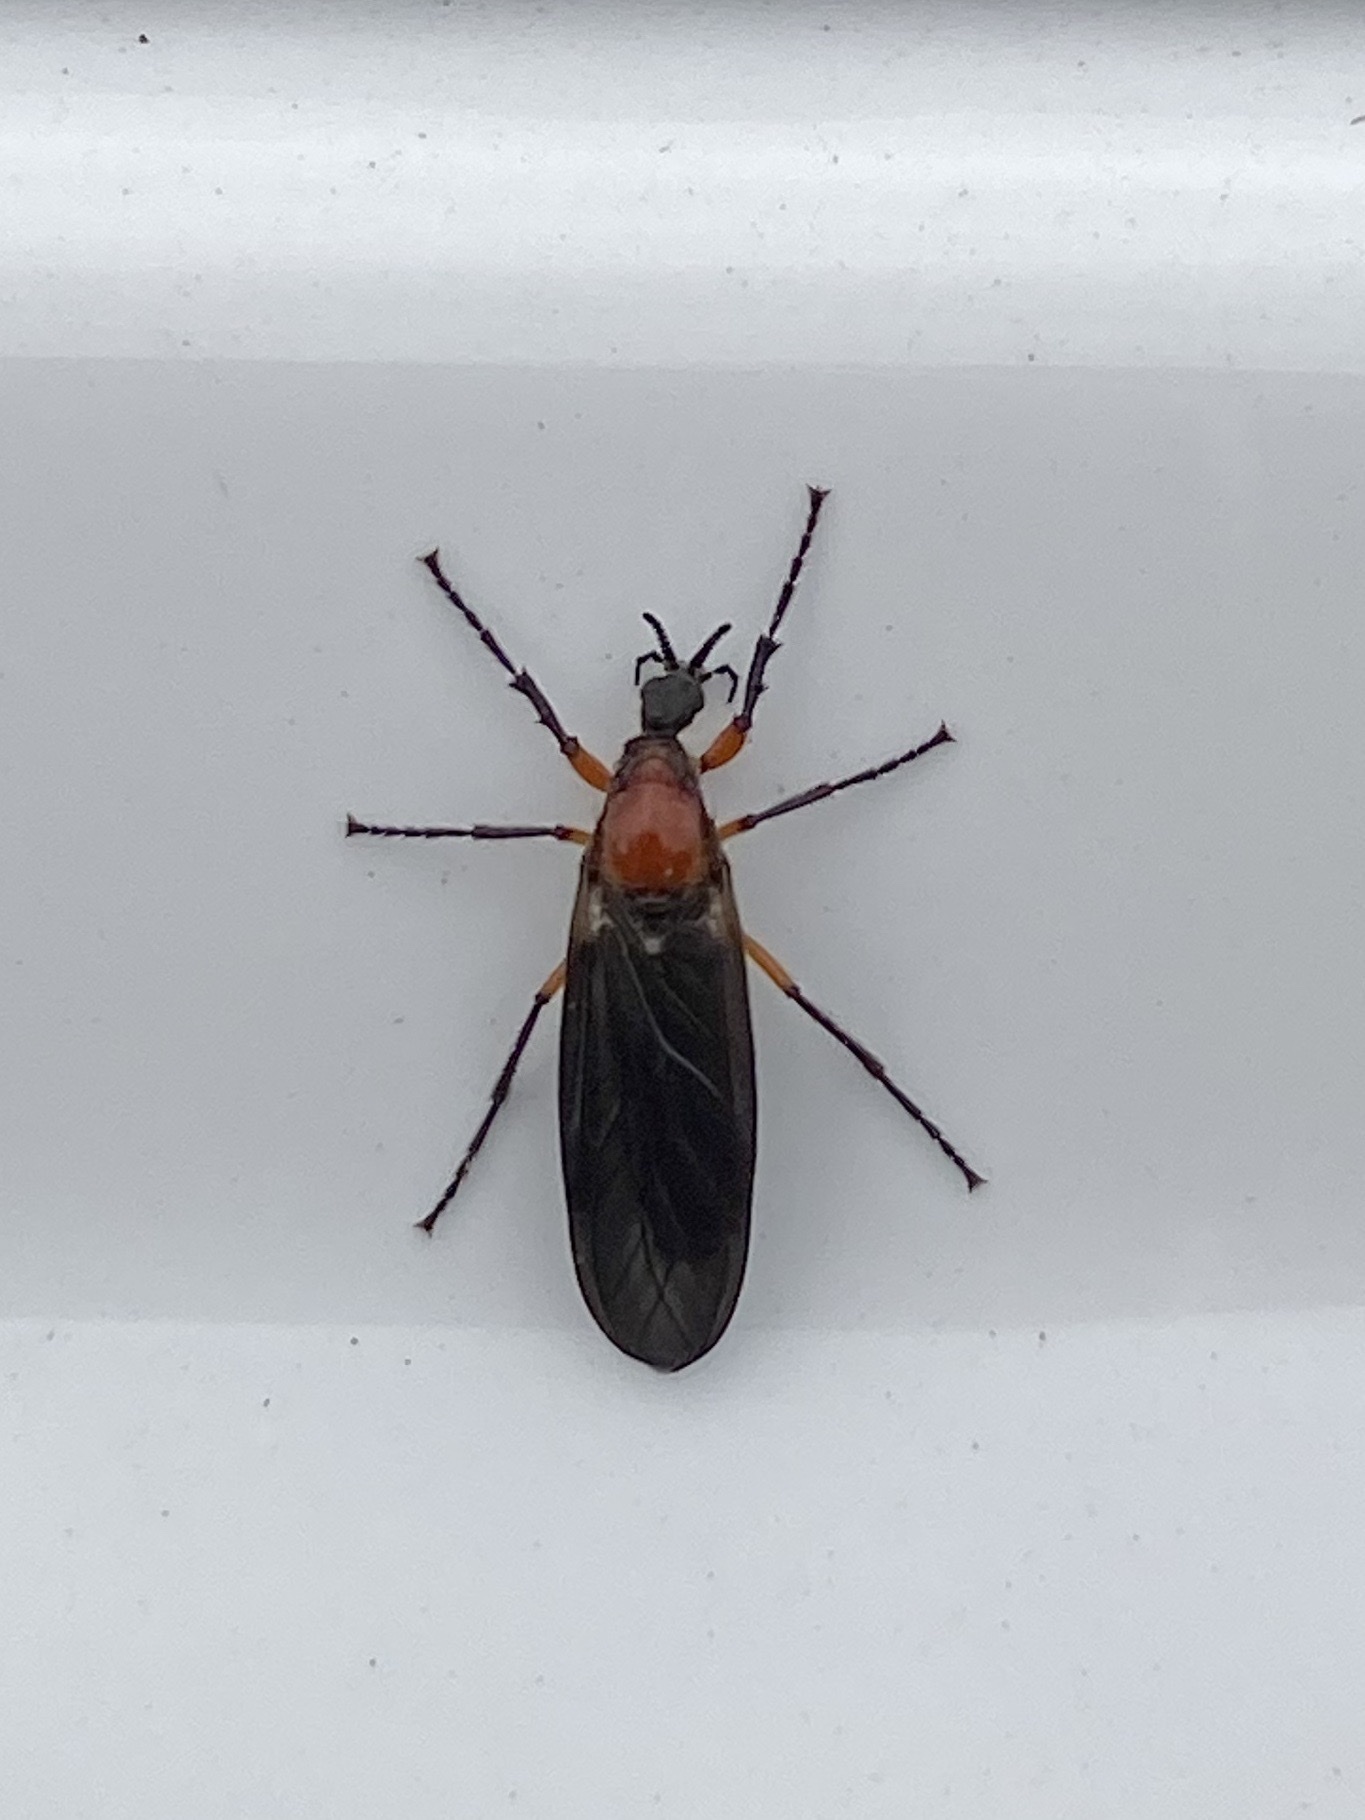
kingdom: Animalia
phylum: Arthropoda
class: Insecta
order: Diptera
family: Bibionidae
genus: Dilophus
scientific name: Dilophus serotinus
